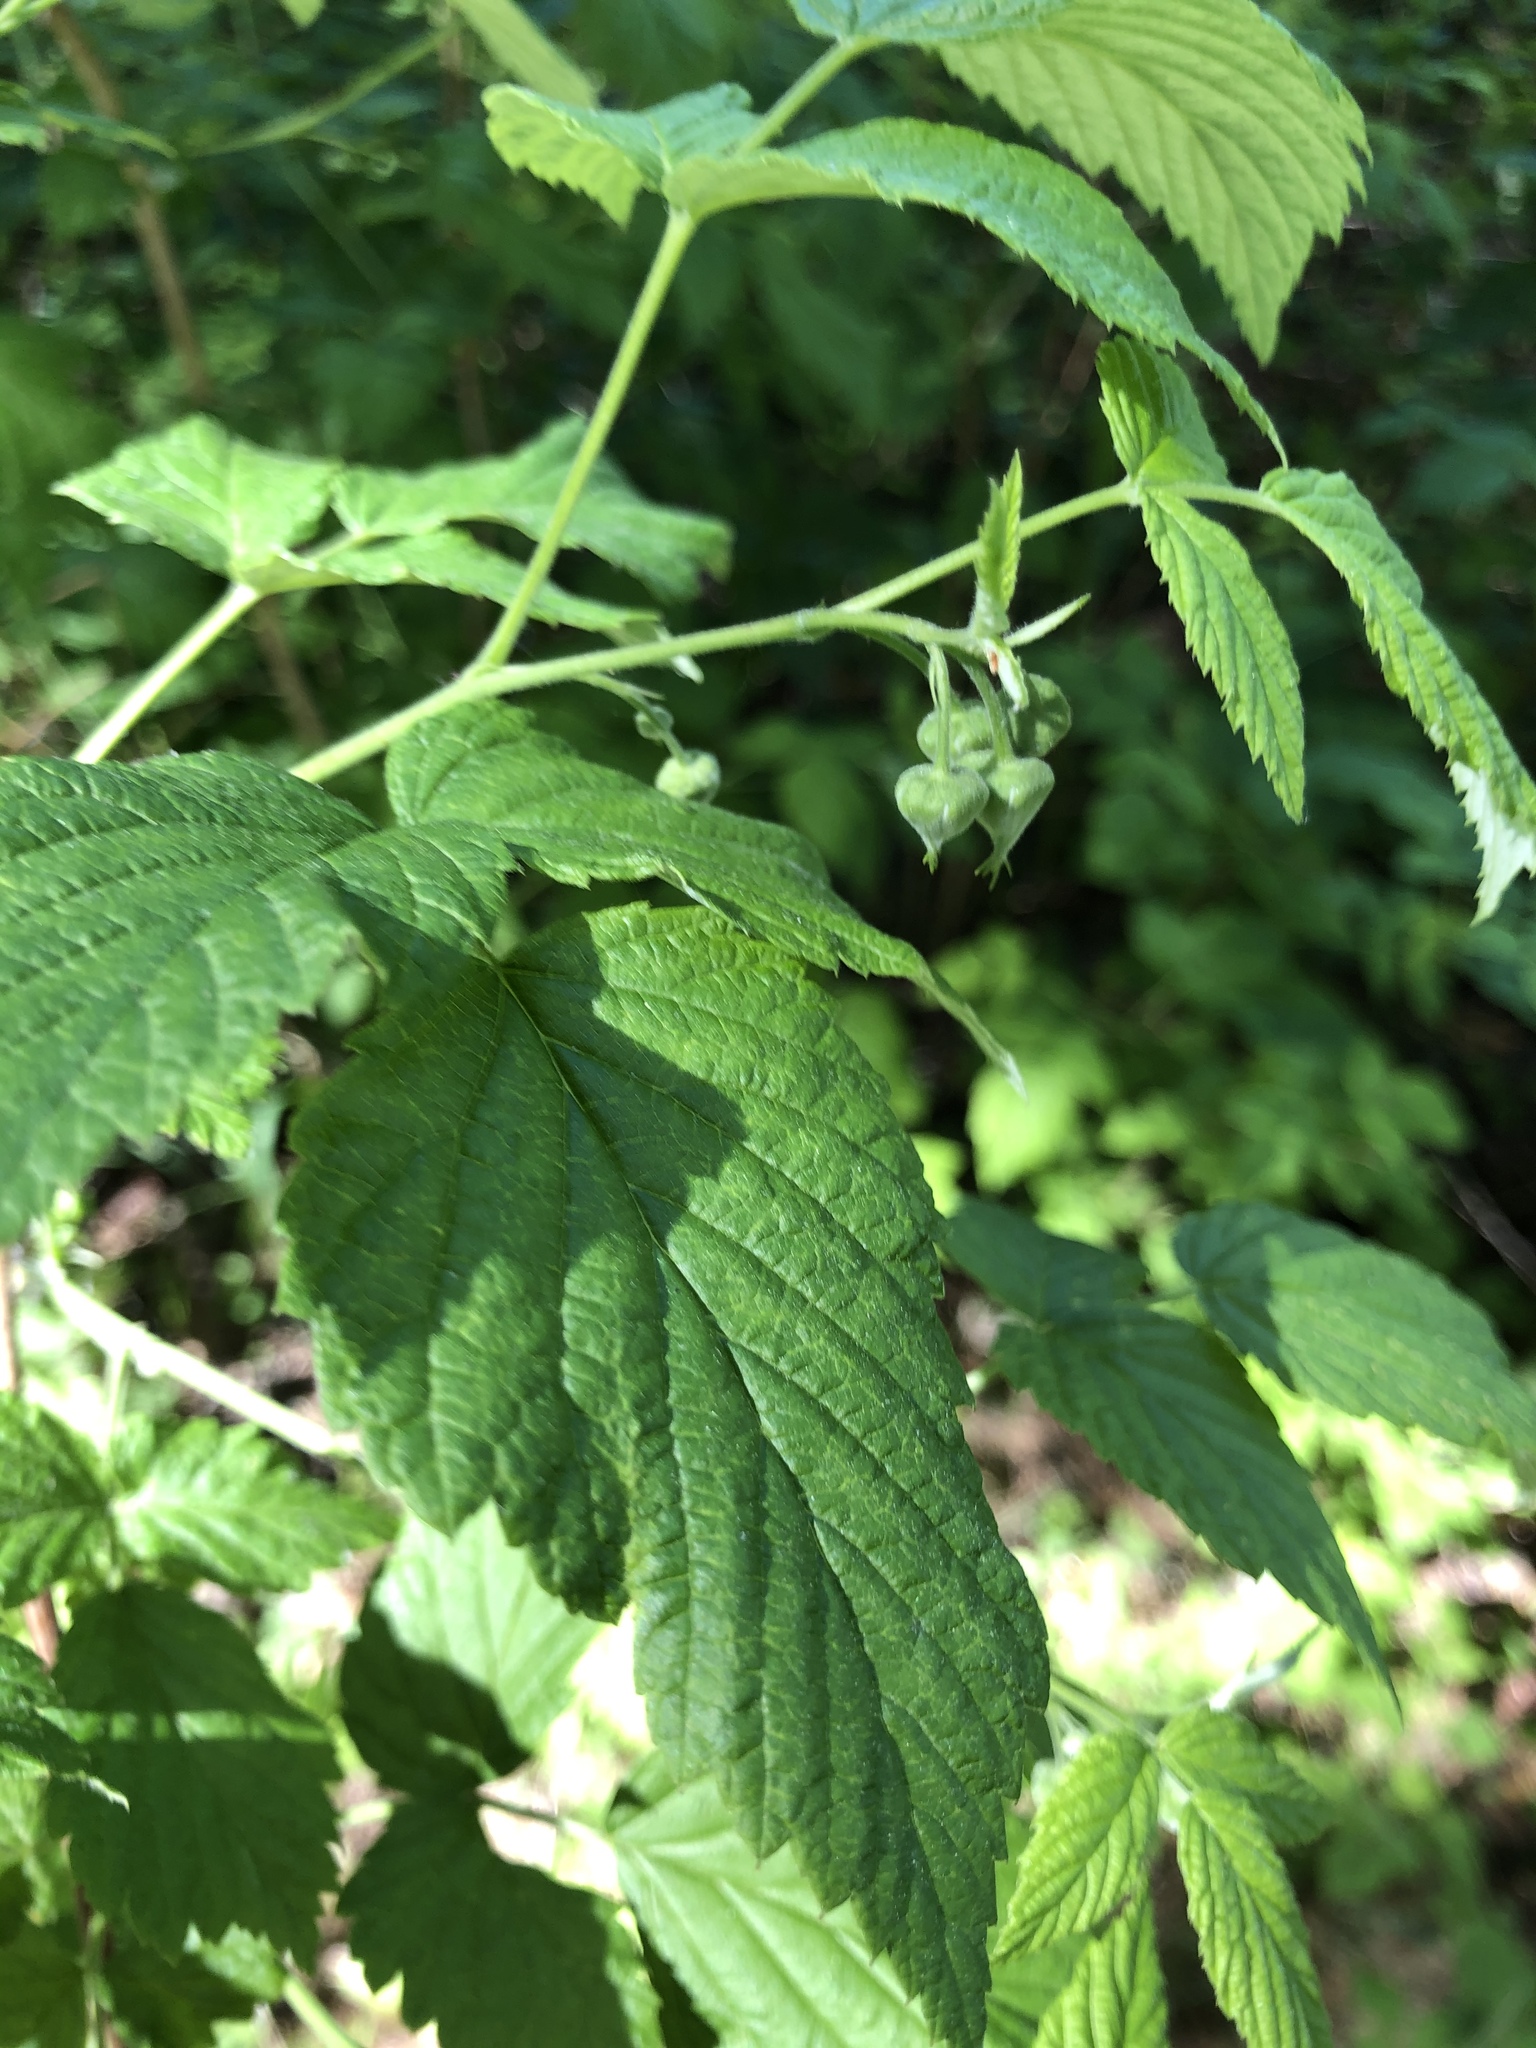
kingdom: Plantae
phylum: Tracheophyta
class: Magnoliopsida
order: Rosales
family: Rosaceae
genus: Rubus
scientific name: Rubus idaeus
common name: Raspberry
